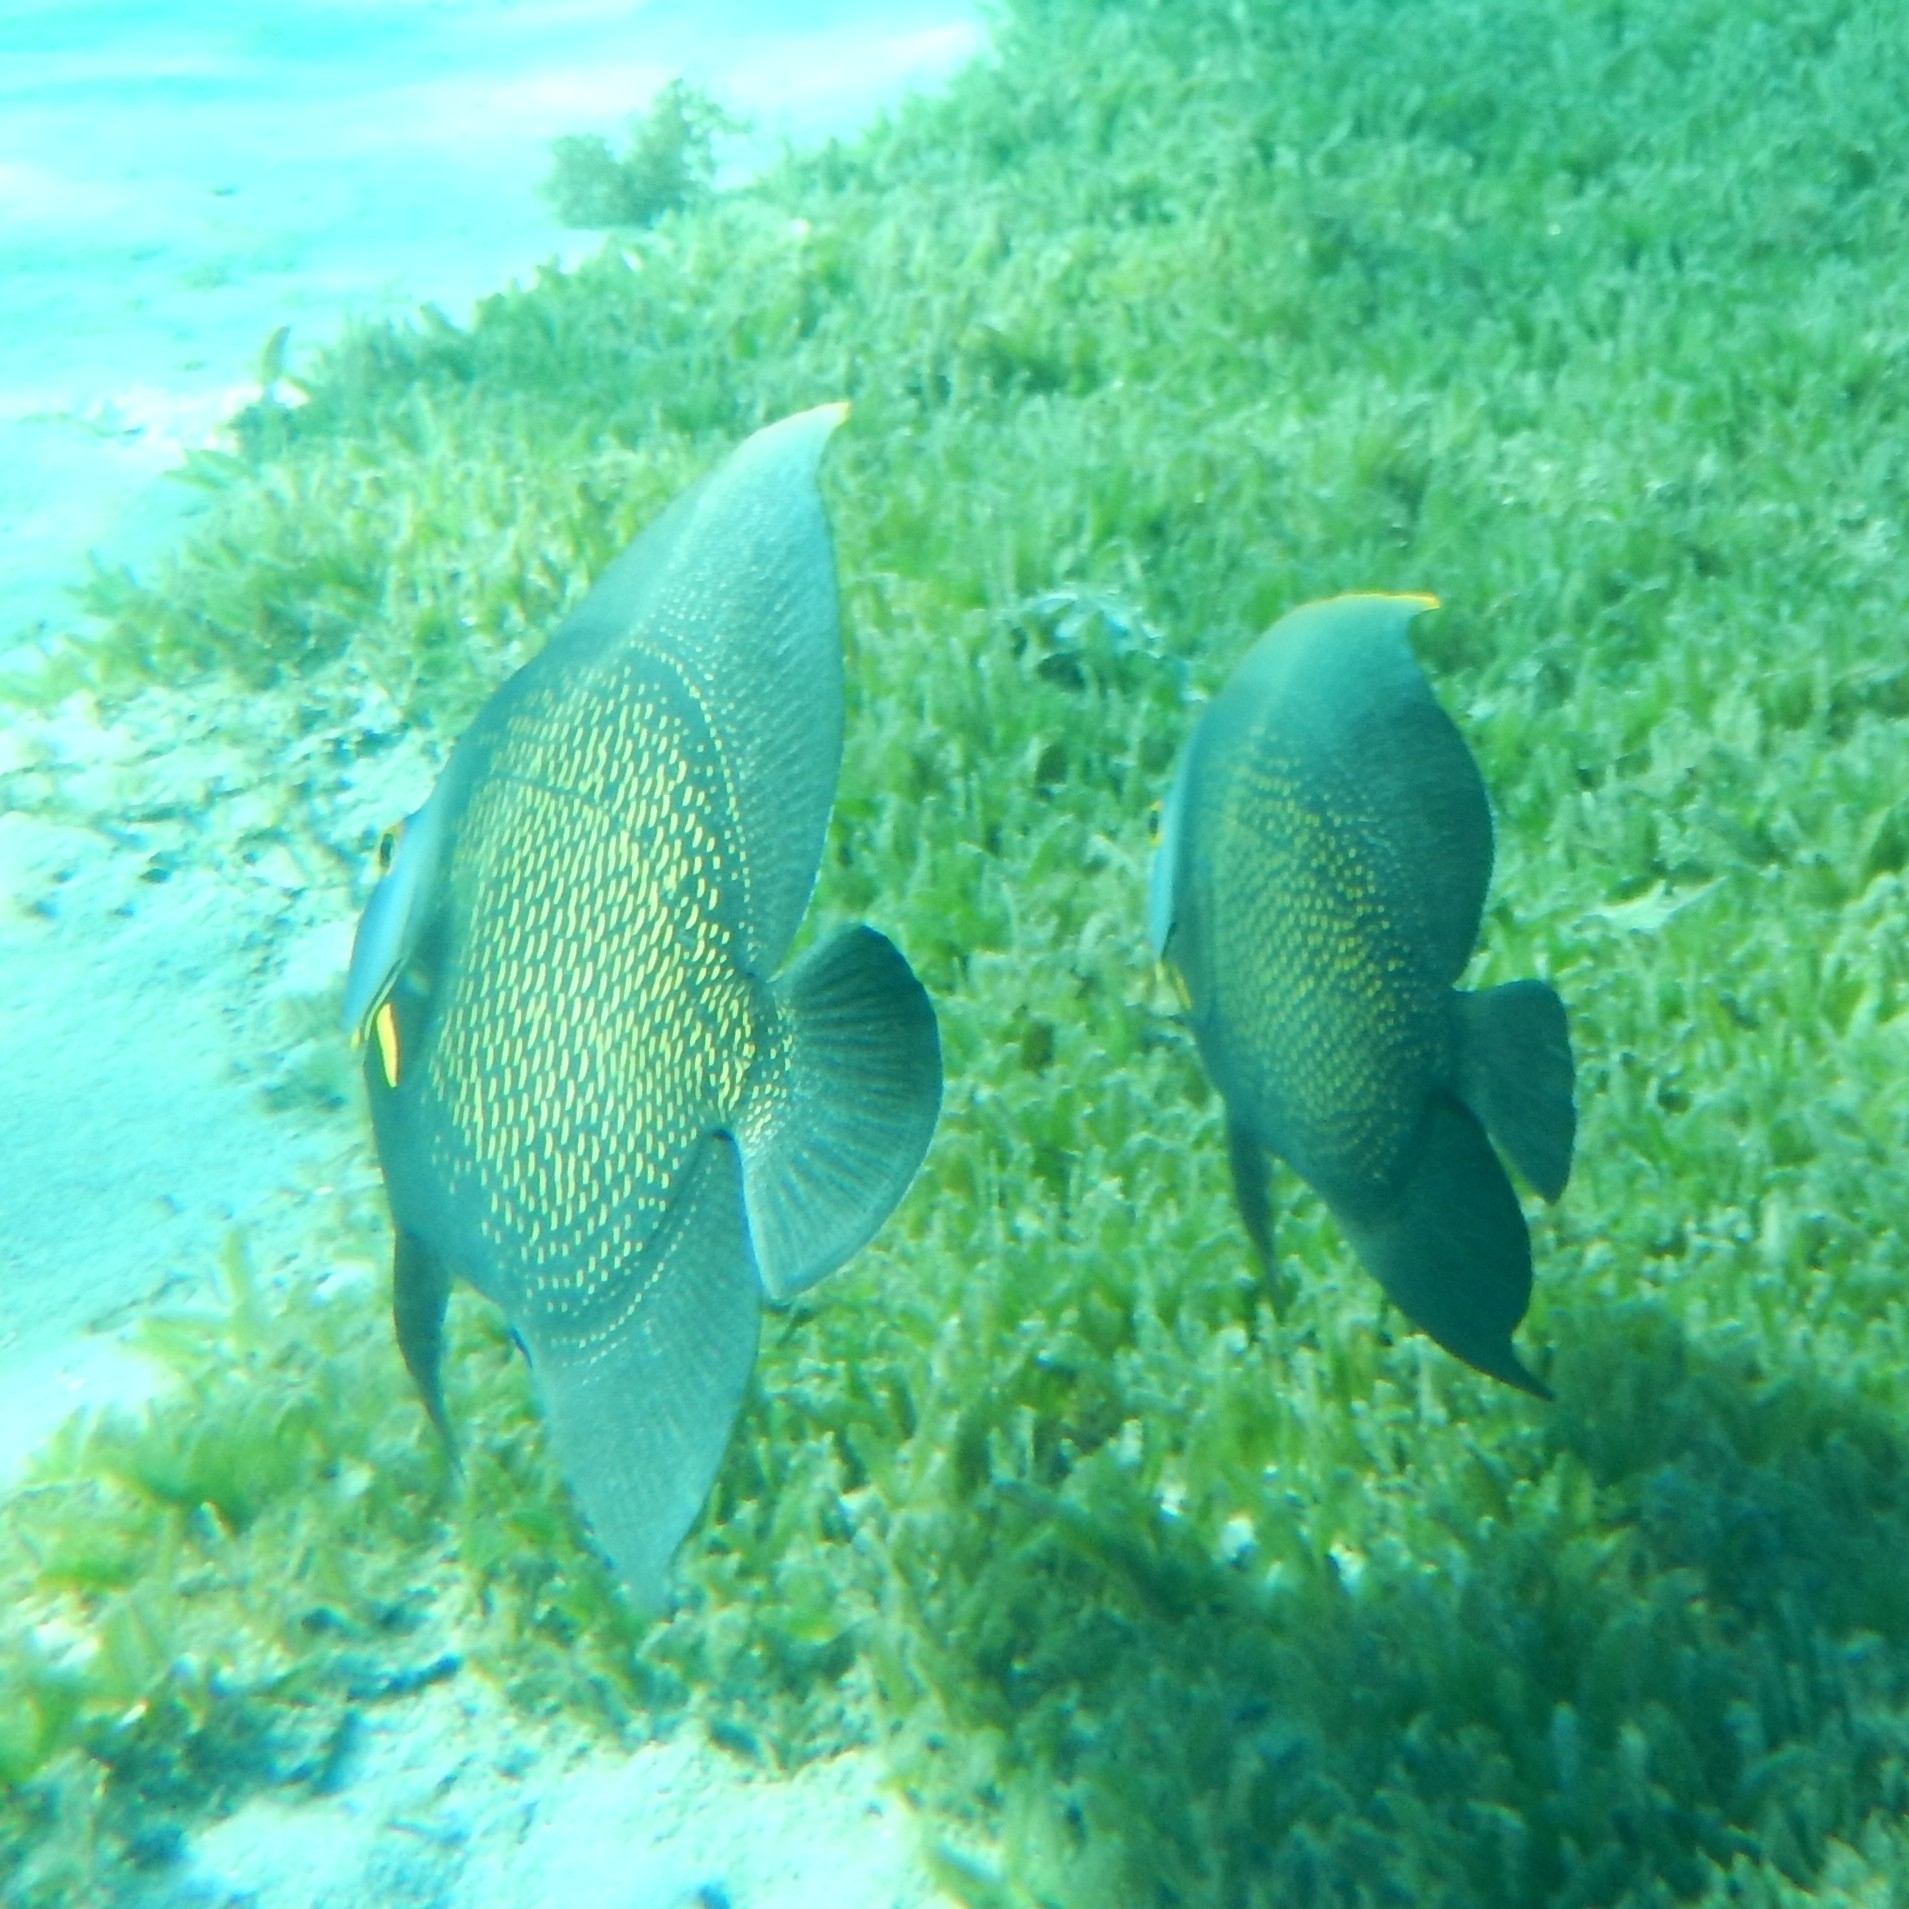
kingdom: Animalia
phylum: Chordata
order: Perciformes
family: Pomacanthidae
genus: Pomacanthus
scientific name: Pomacanthus paru
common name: French angelfish
